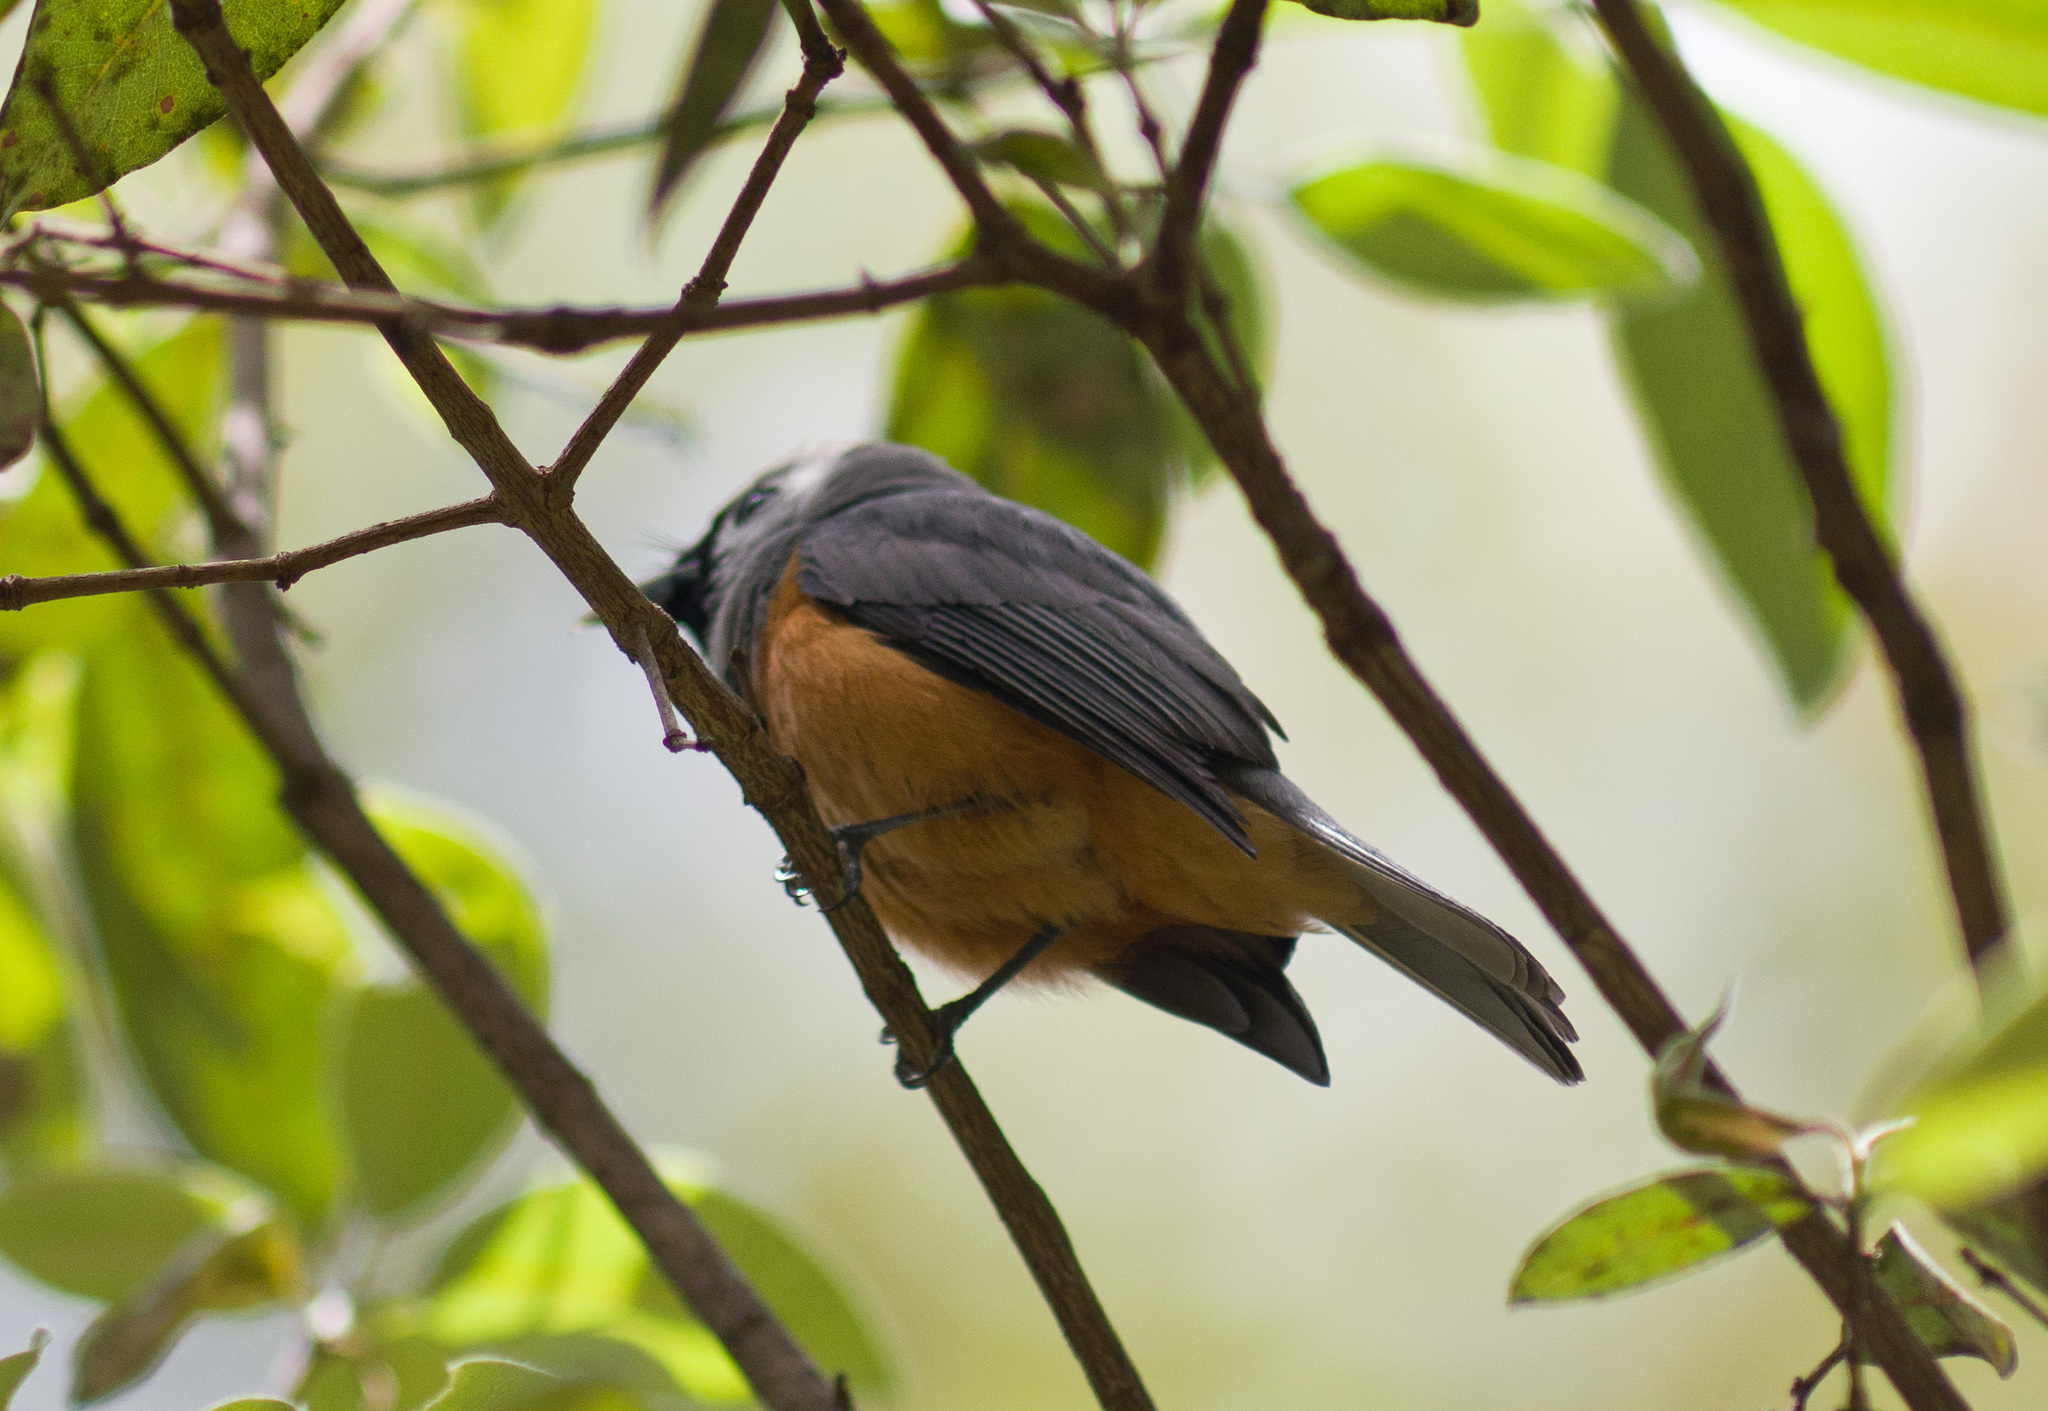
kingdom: Animalia
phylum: Chordata
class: Aves
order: Passeriformes
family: Monarchidae
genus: Monarcha
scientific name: Monarcha melanopsis
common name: Black-faced monarch
